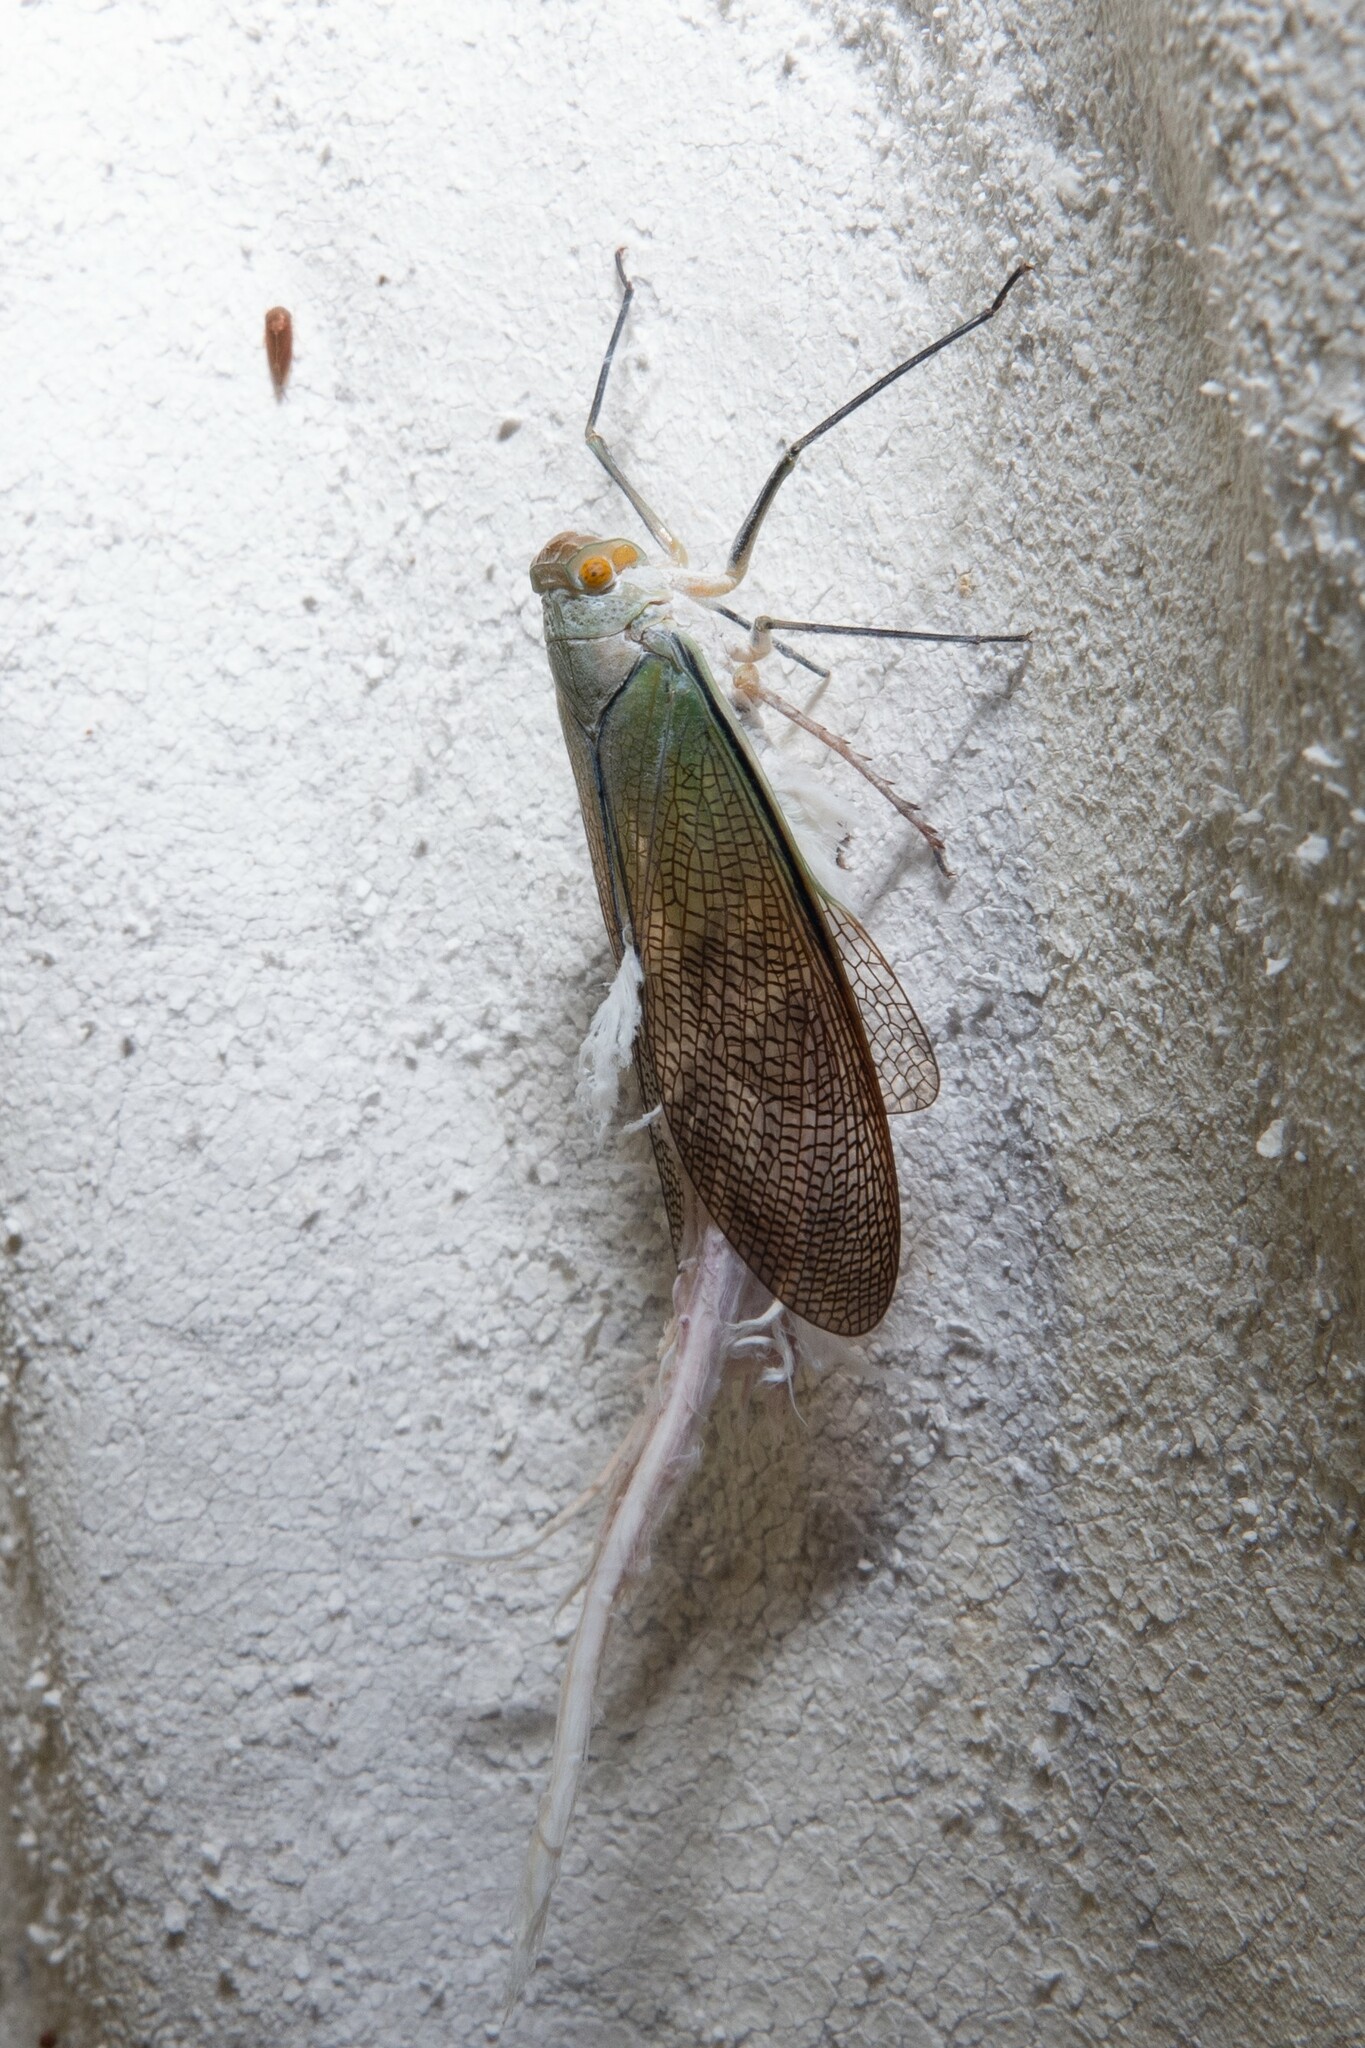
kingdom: Animalia
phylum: Arthropoda
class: Insecta
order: Hemiptera
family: Fulgoridae
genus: Pterodictya
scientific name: Pterodictya reticularis
